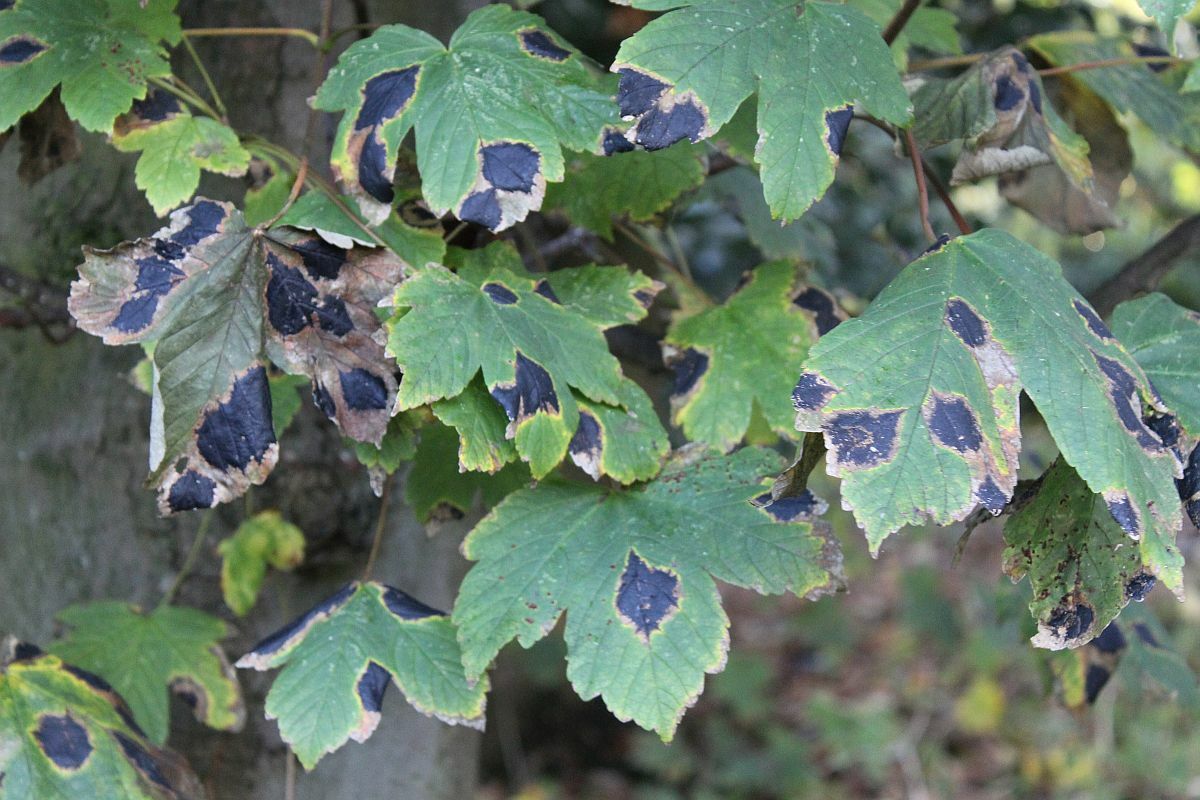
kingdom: Fungi
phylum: Ascomycota
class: Leotiomycetes
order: Rhytismatales
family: Rhytismataceae
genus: Rhytisma
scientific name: Rhytisma acerinum
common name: European tar spot
